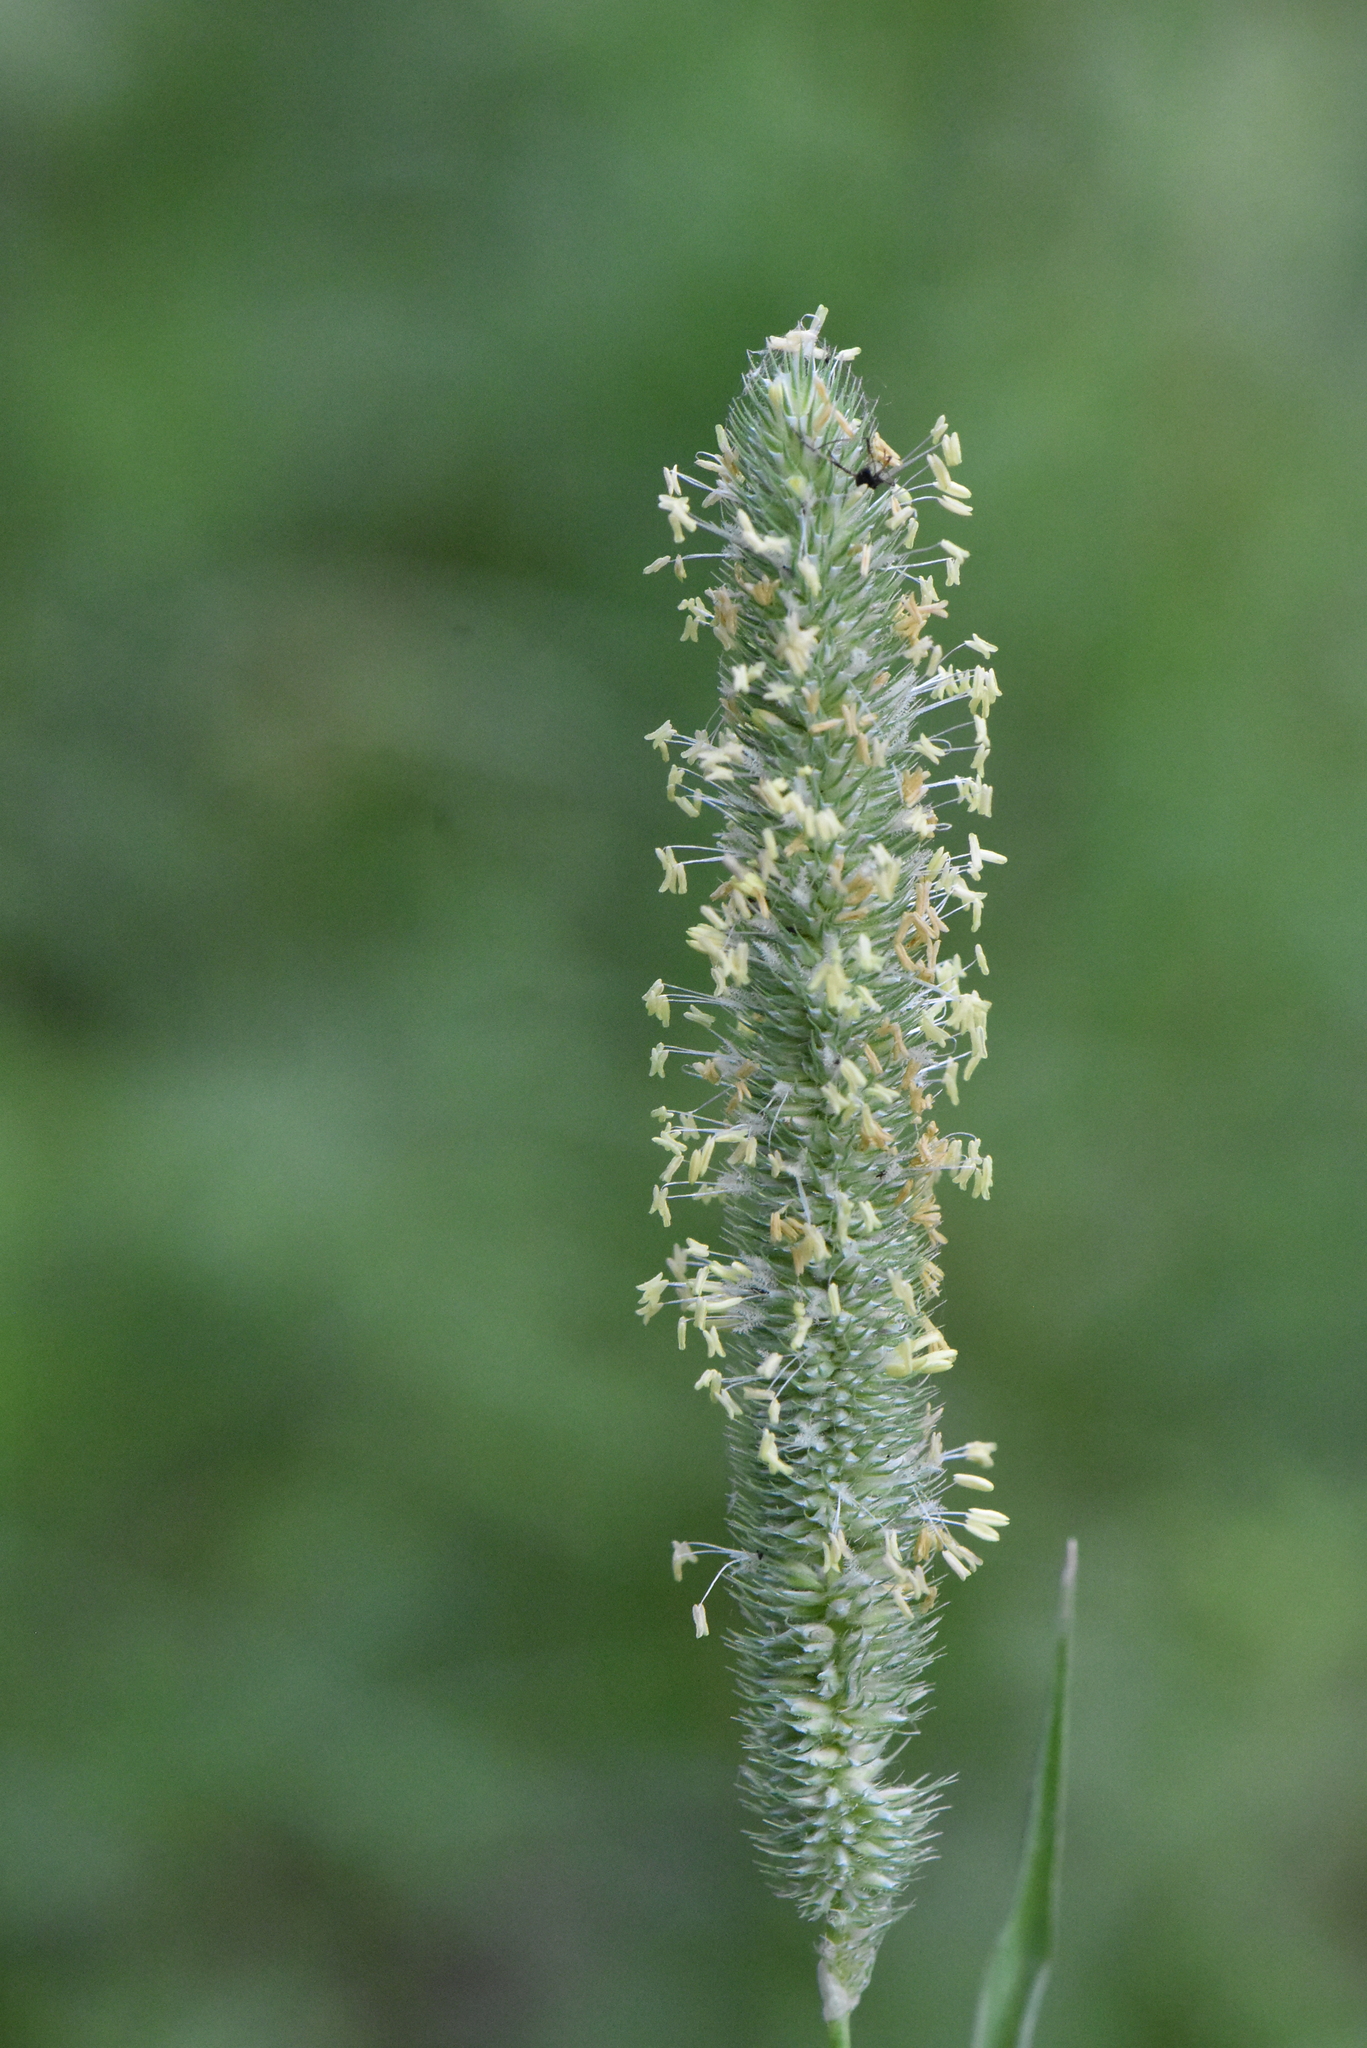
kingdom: Plantae
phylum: Tracheophyta
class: Liliopsida
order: Poales
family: Poaceae
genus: Phleum
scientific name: Phleum pratense
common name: Timothy grass
